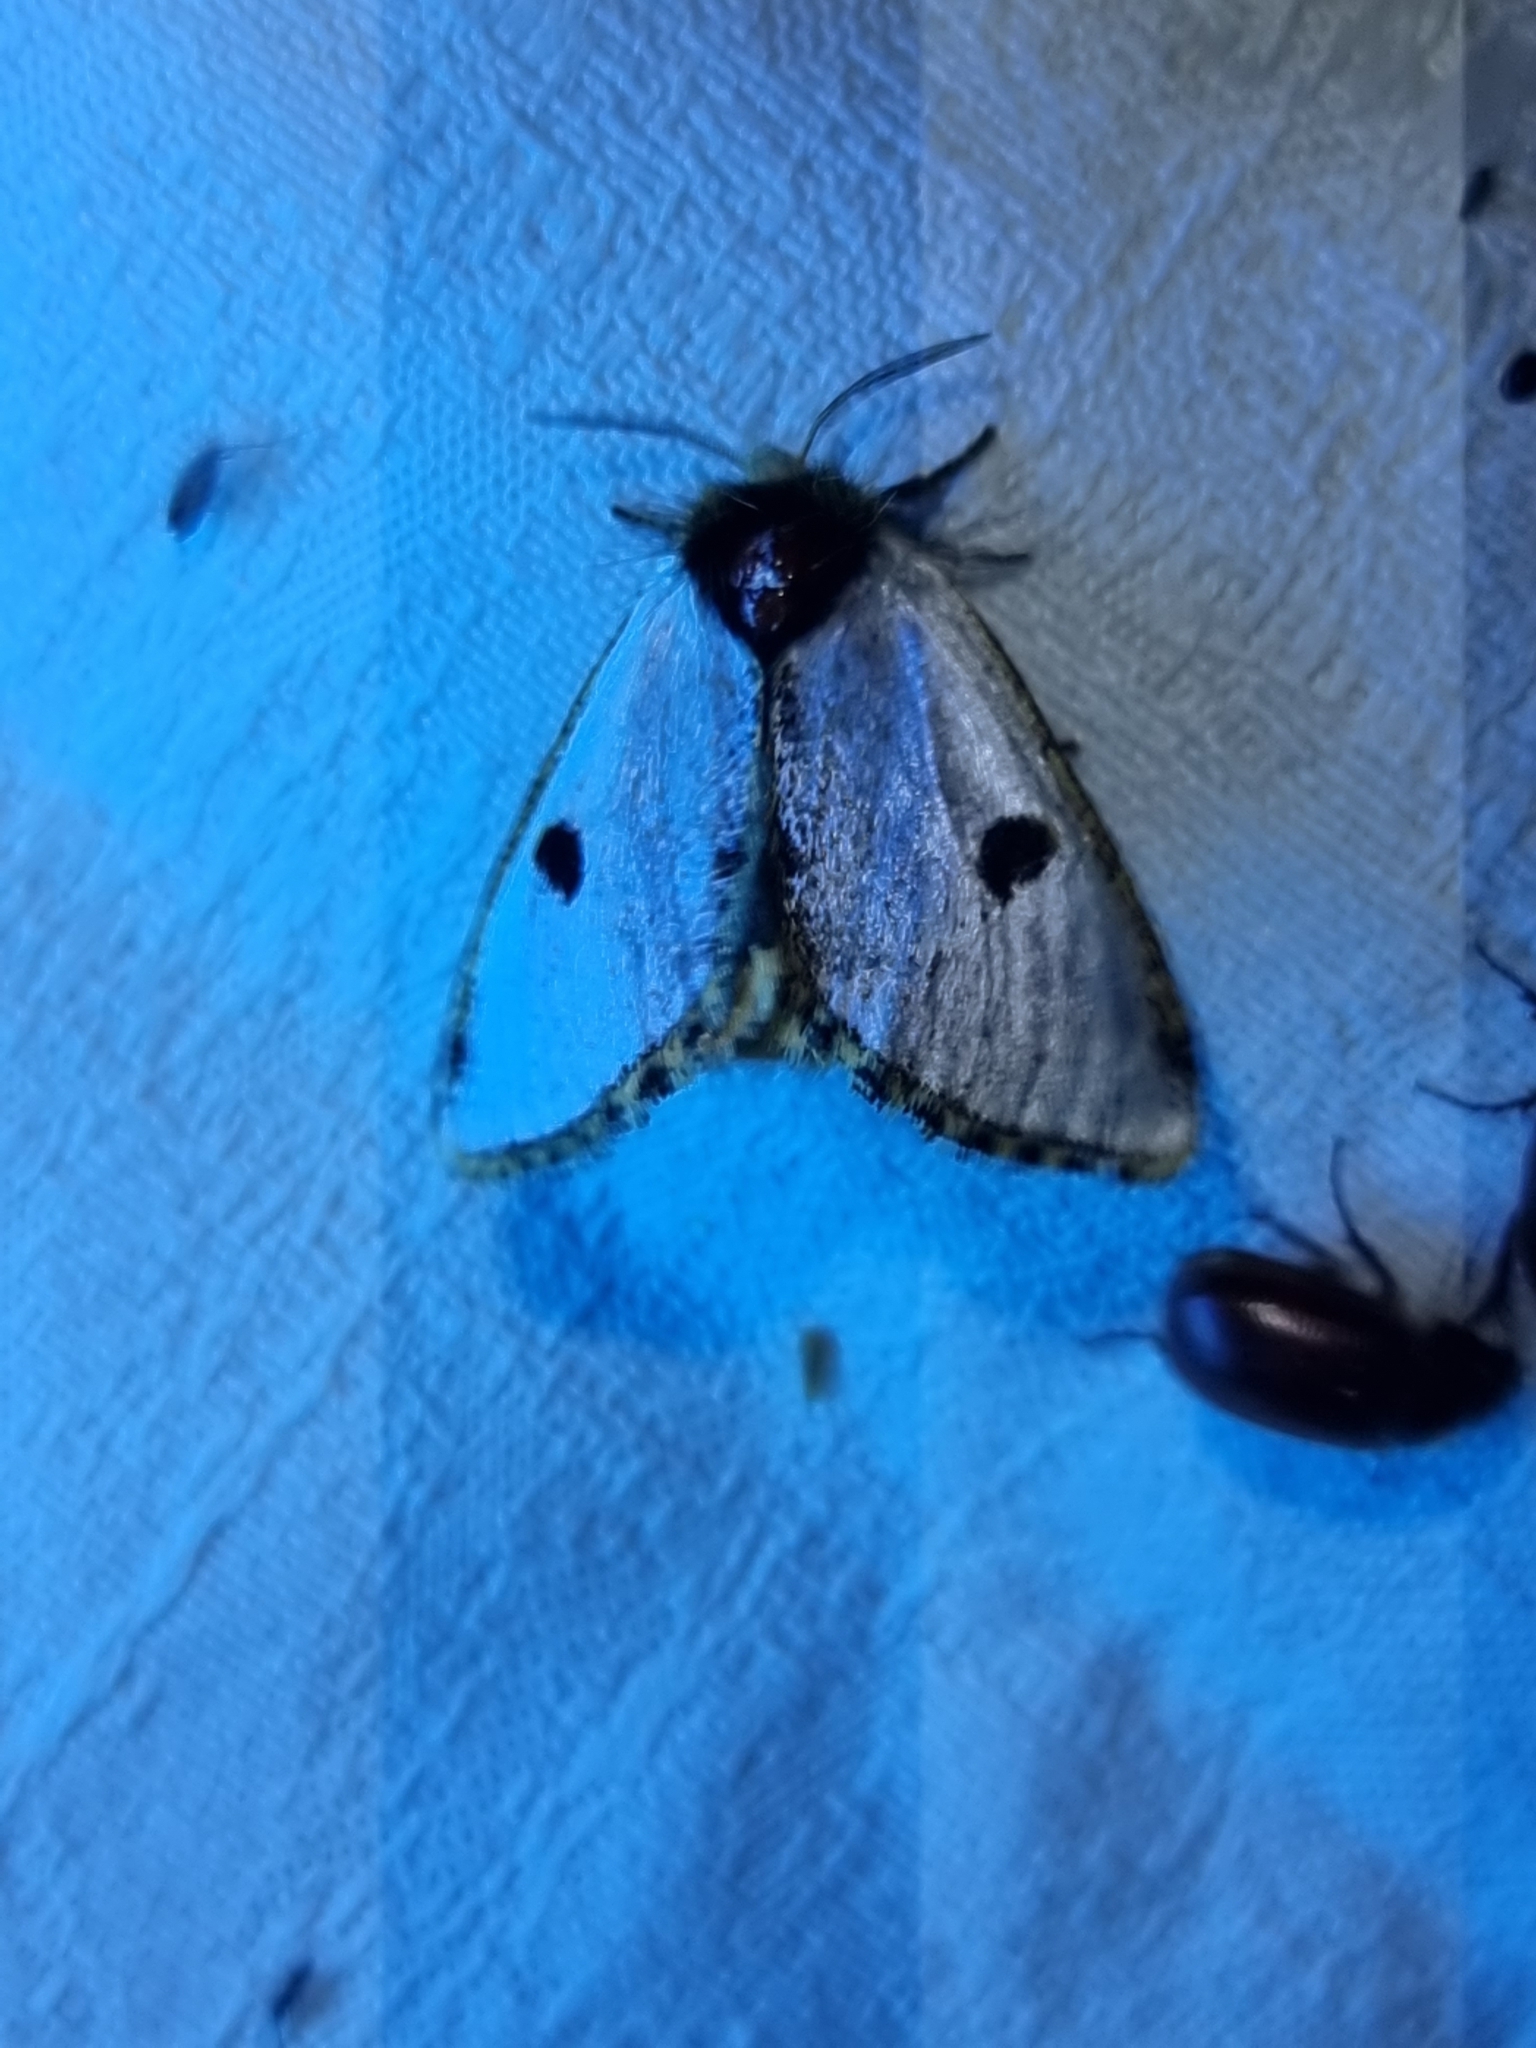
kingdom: Animalia
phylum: Arthropoda
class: Insecta
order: Lepidoptera
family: Notodontidae
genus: Epicoma
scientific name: Epicoma melanospila
